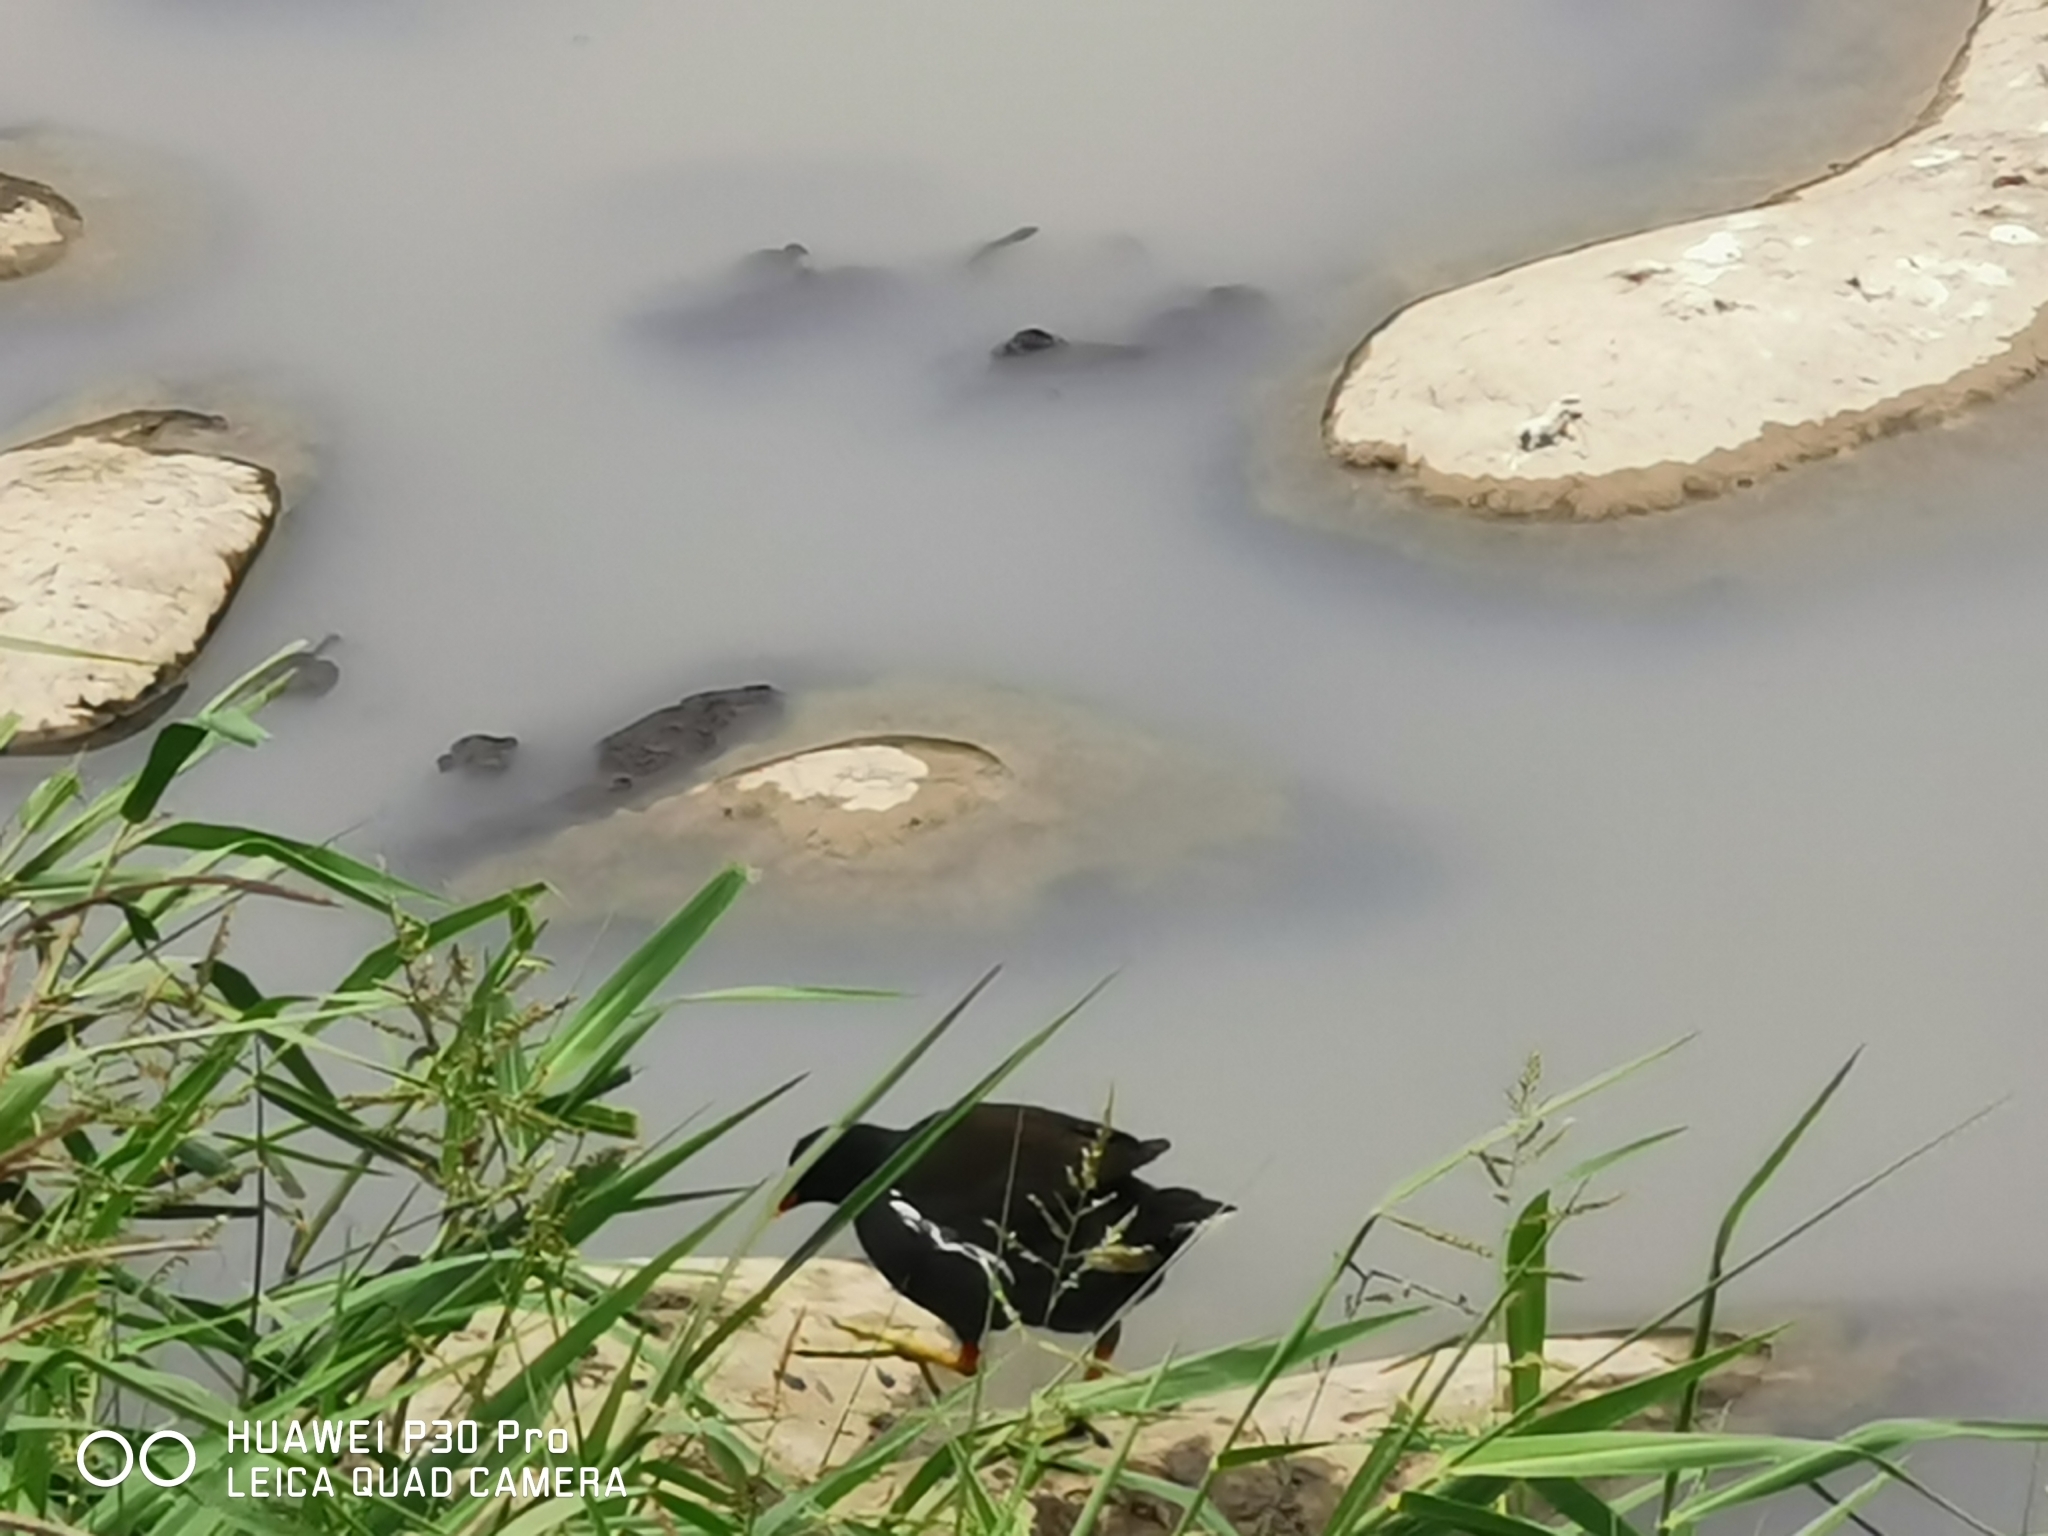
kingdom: Animalia
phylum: Chordata
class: Aves
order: Gruiformes
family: Rallidae
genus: Gallinula
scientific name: Gallinula chloropus
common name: Common moorhen
